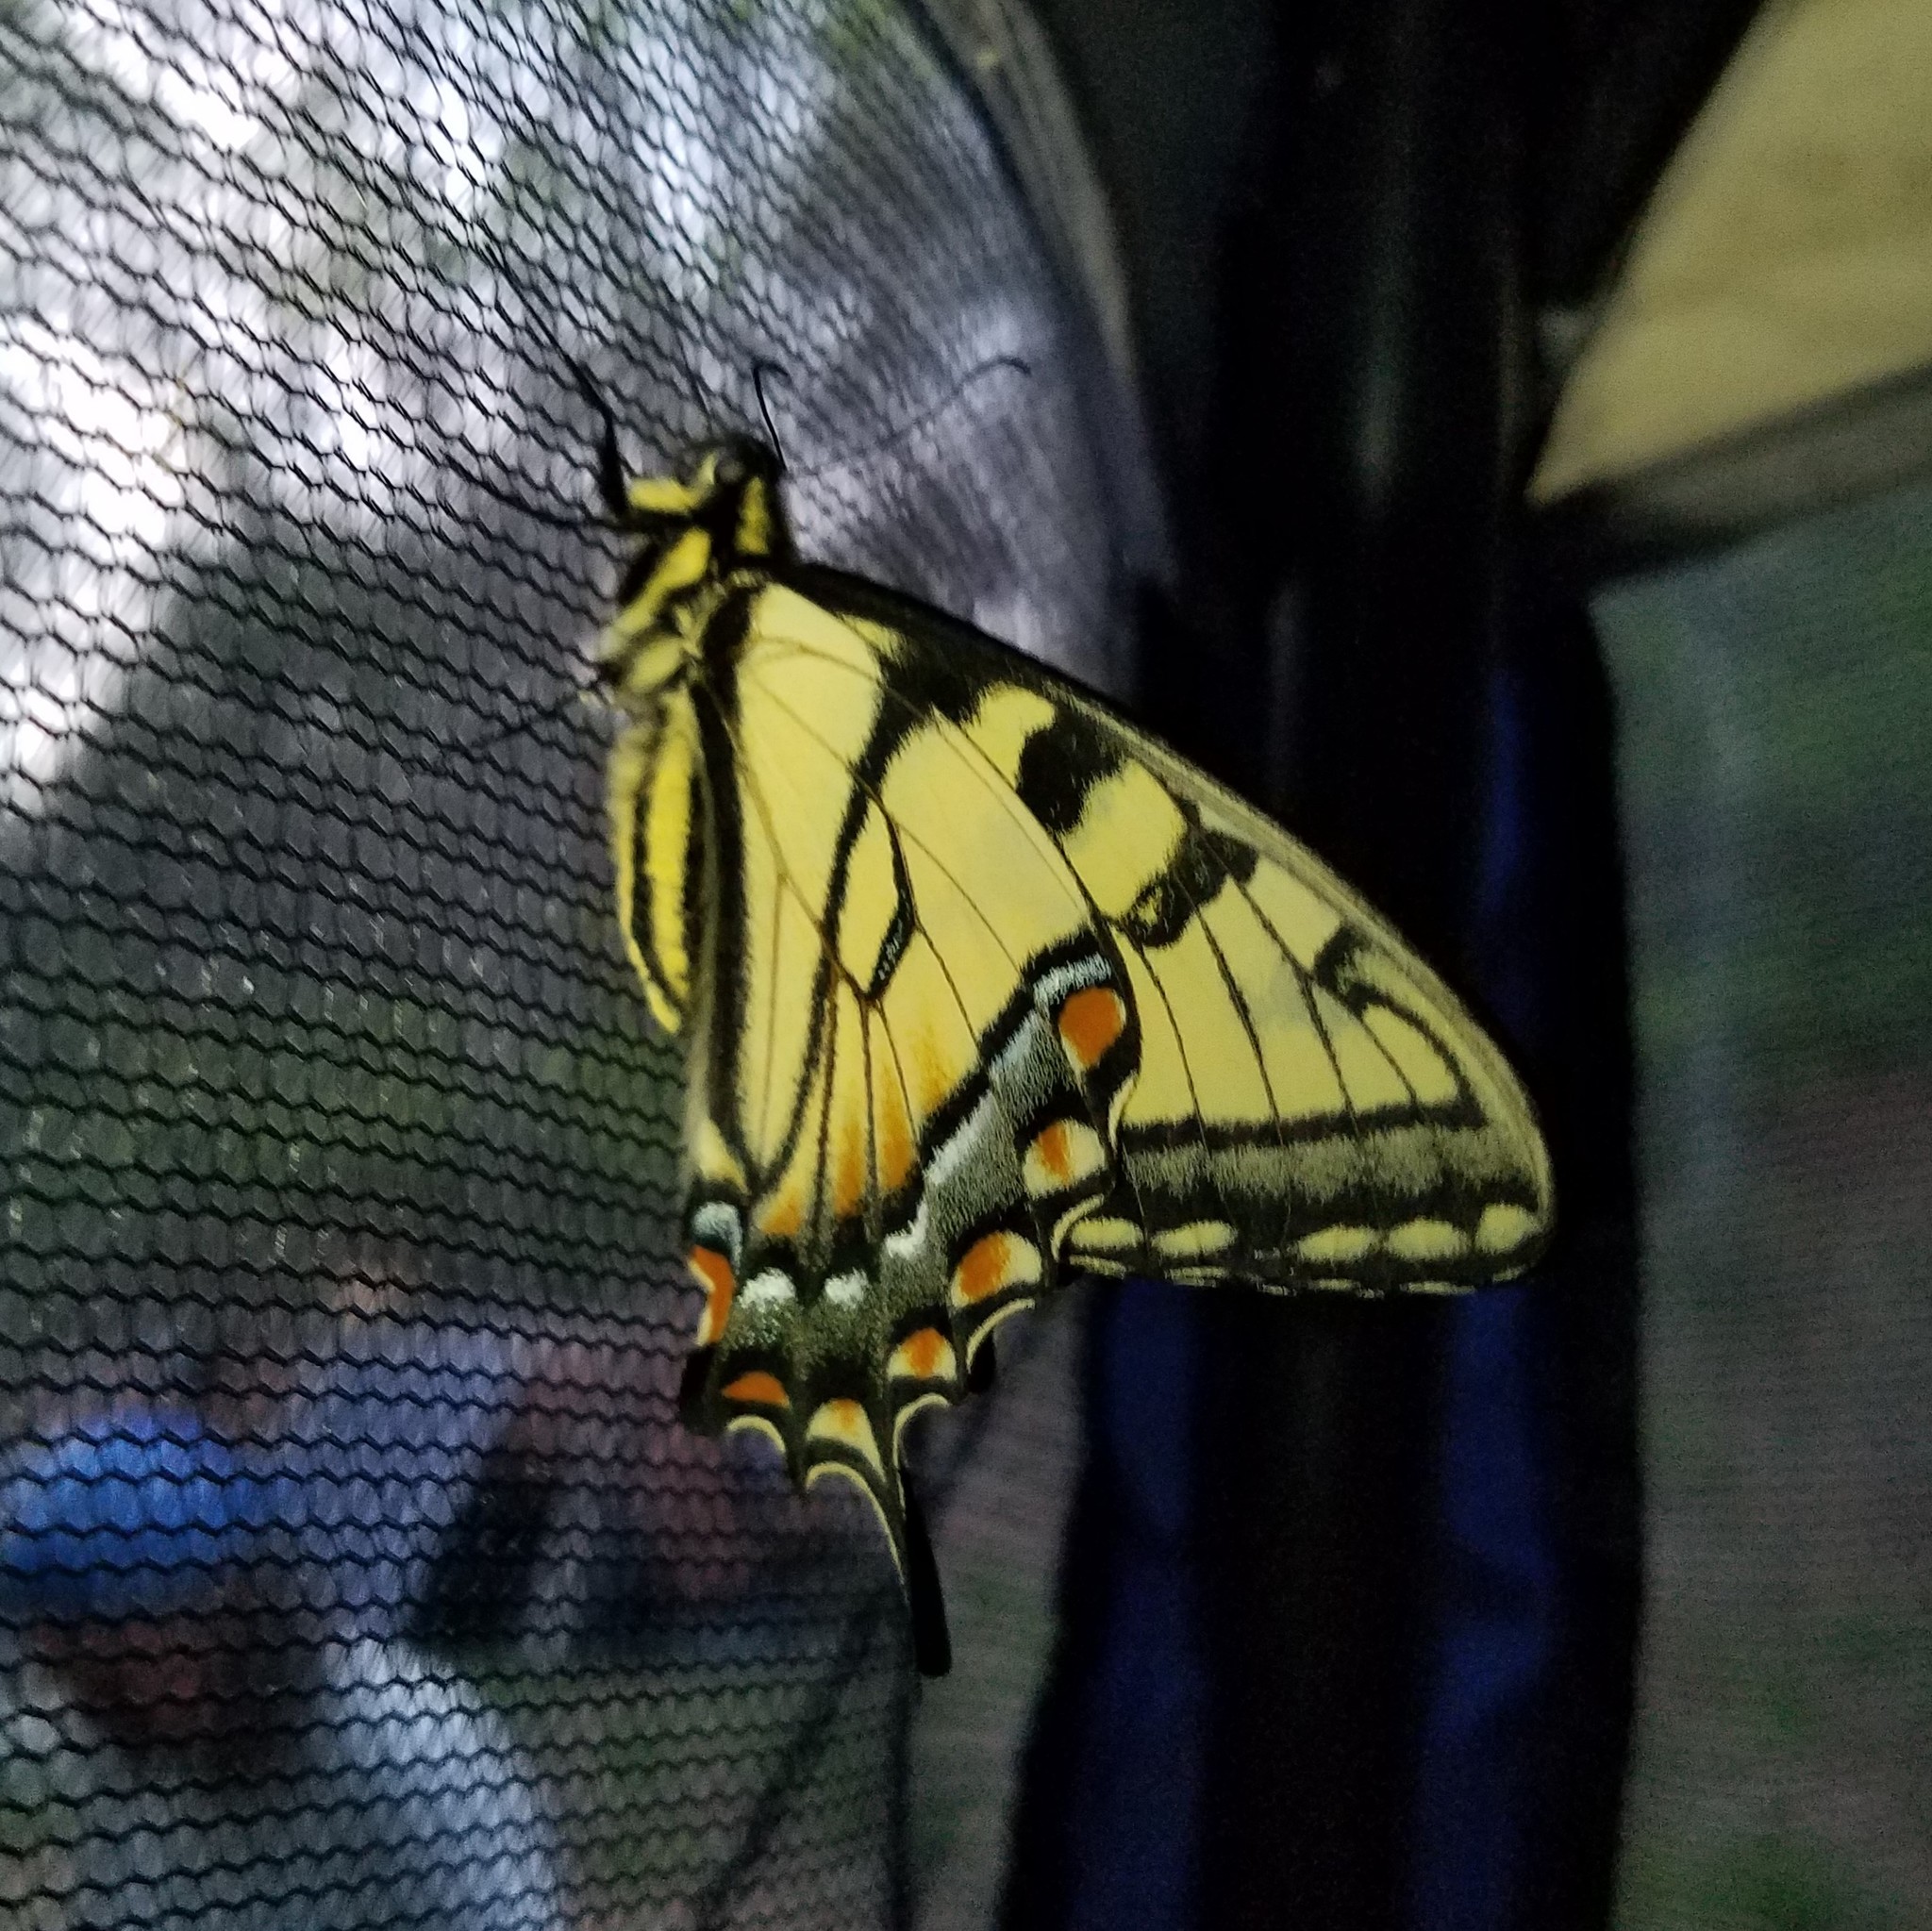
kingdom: Animalia
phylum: Arthropoda
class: Insecta
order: Lepidoptera
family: Papilionidae
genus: Papilio
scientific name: Papilio glaucus
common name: Tiger swallowtail
